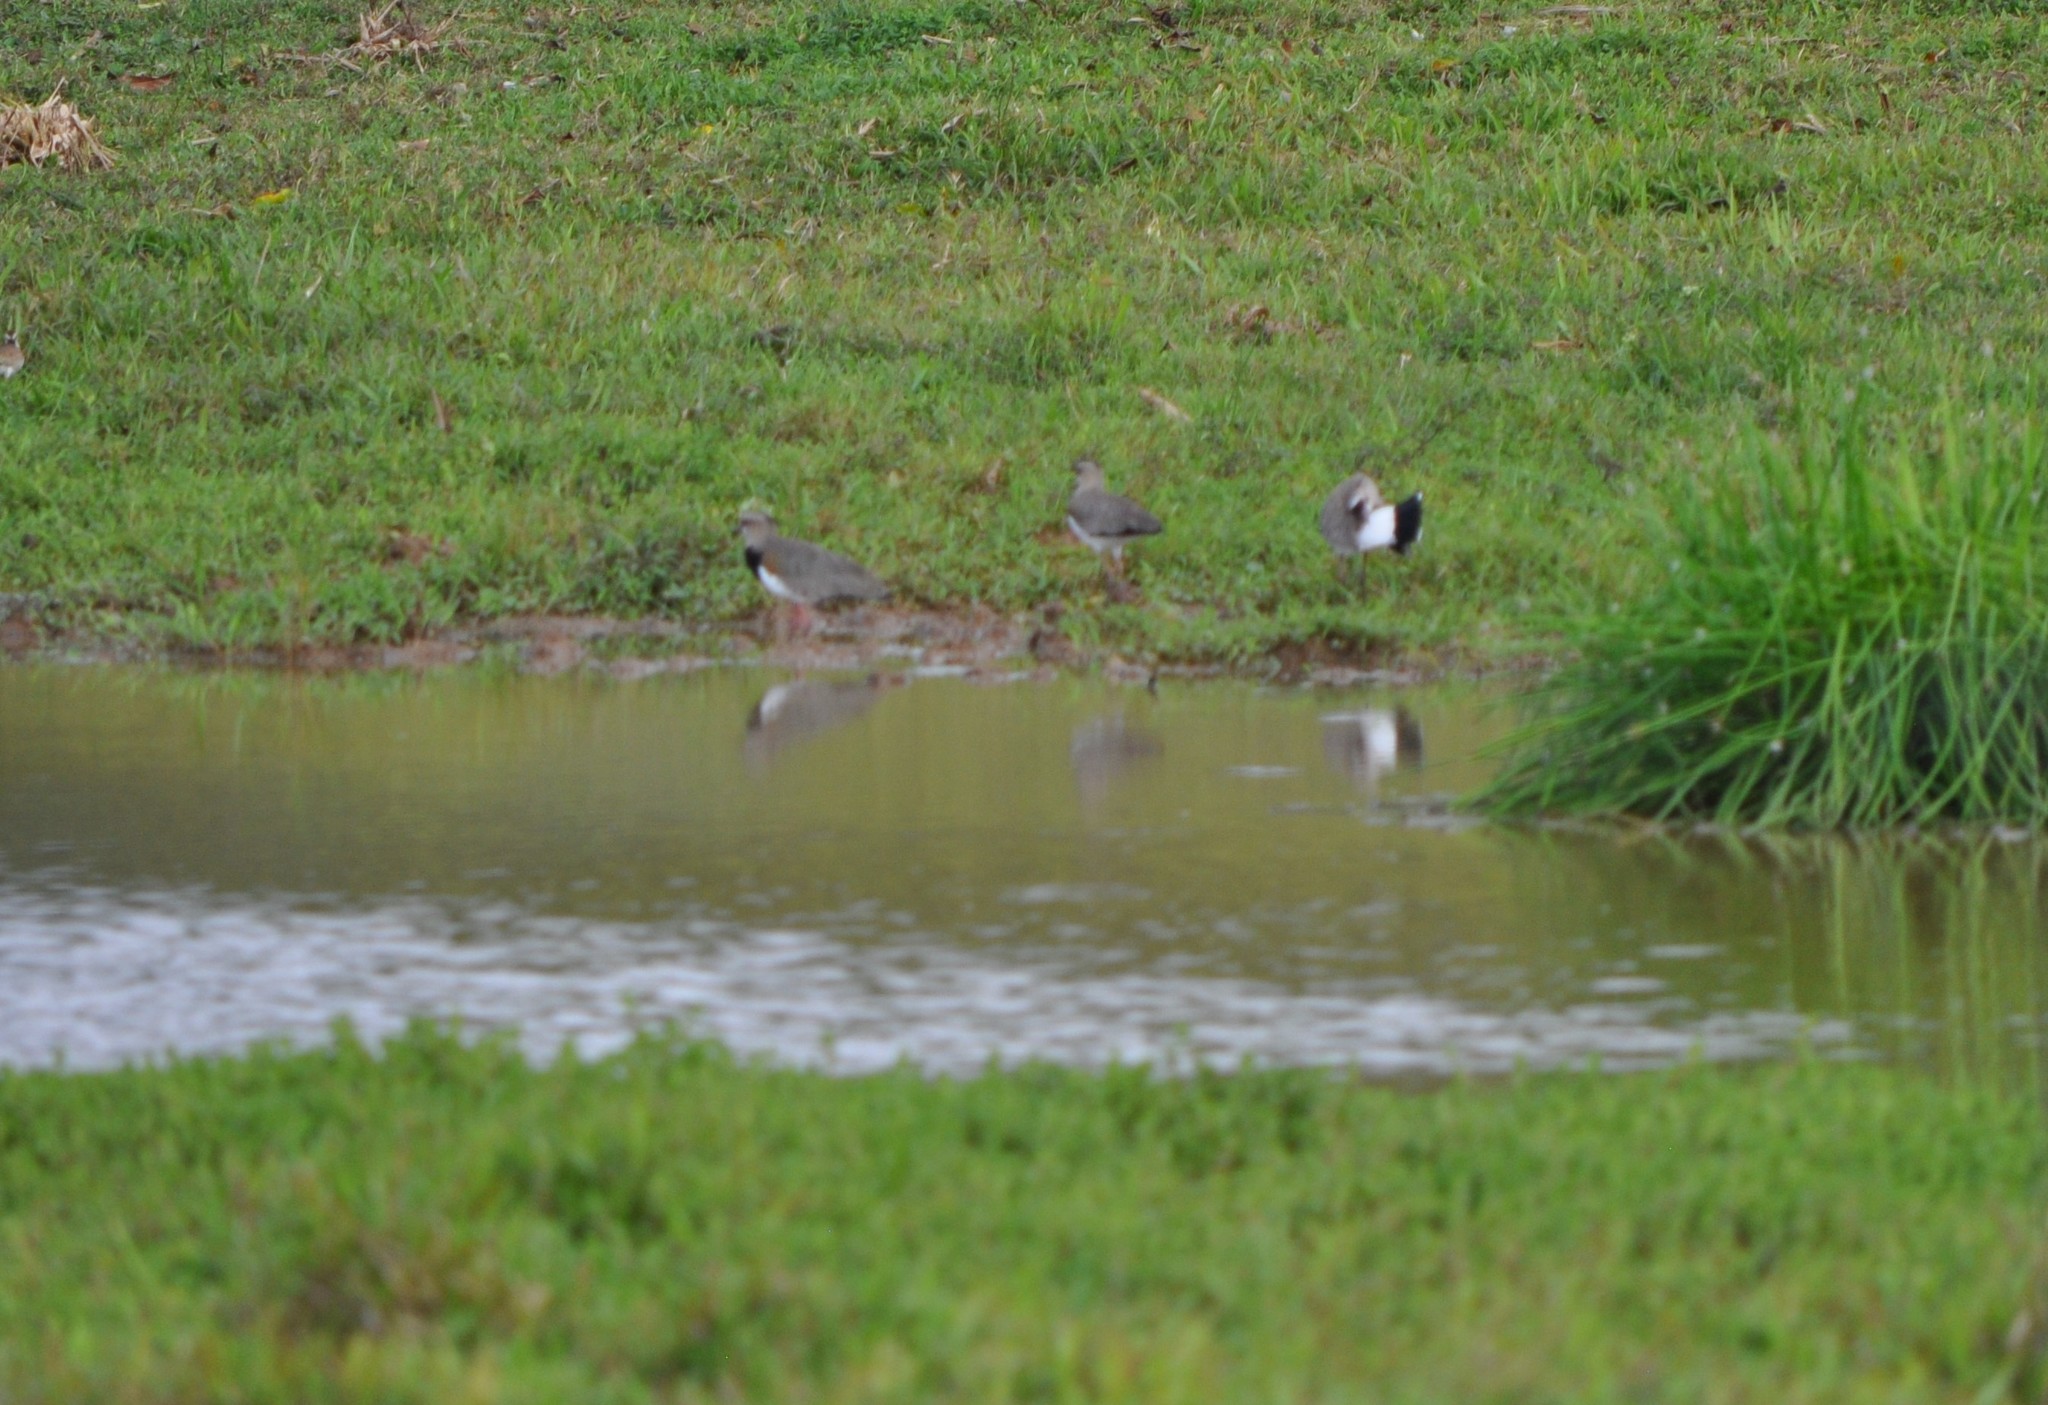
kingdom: Animalia
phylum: Chordata
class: Aves
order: Charadriiformes
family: Charadriidae
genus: Vanellus
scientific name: Vanellus chilensis
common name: Southern lapwing
